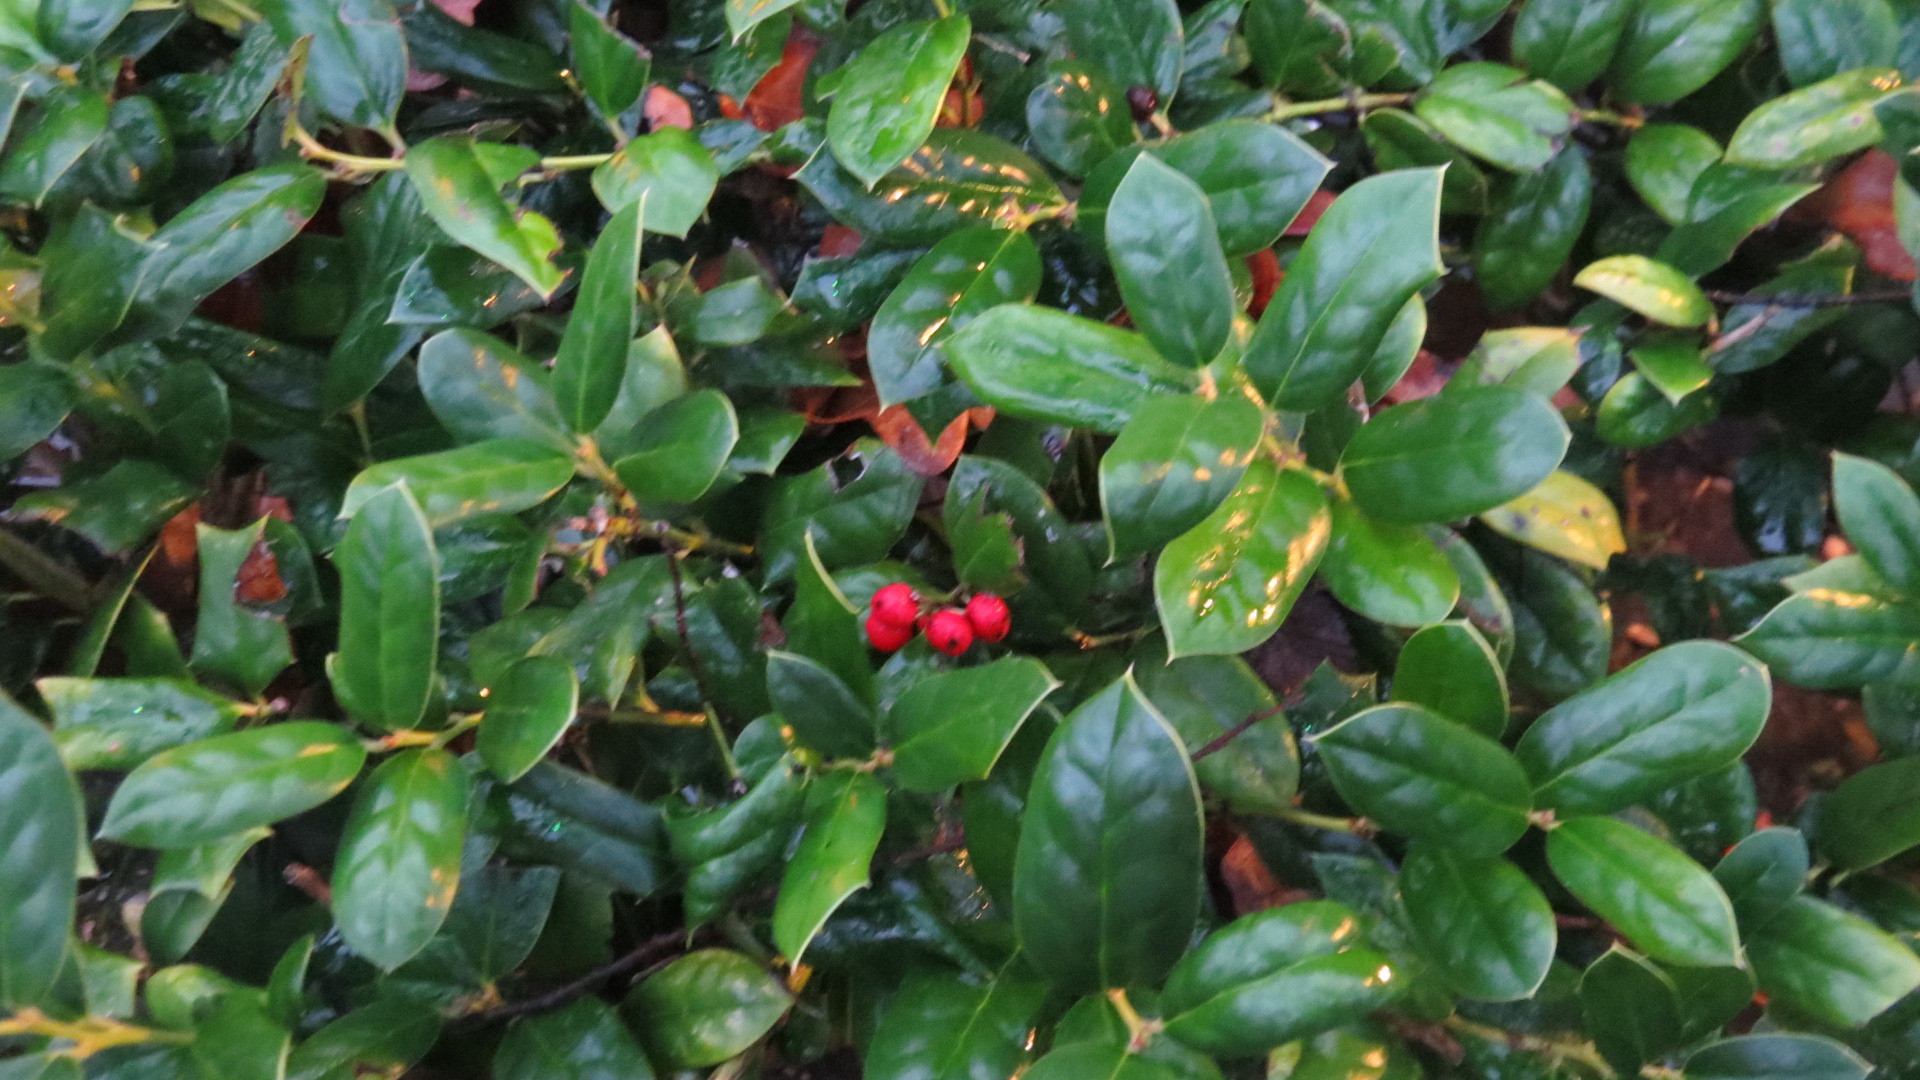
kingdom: Plantae
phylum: Tracheophyta
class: Magnoliopsida
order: Aquifoliales
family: Aquifoliaceae
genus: Ilex
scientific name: Ilex cornuta
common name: Chinese holly
